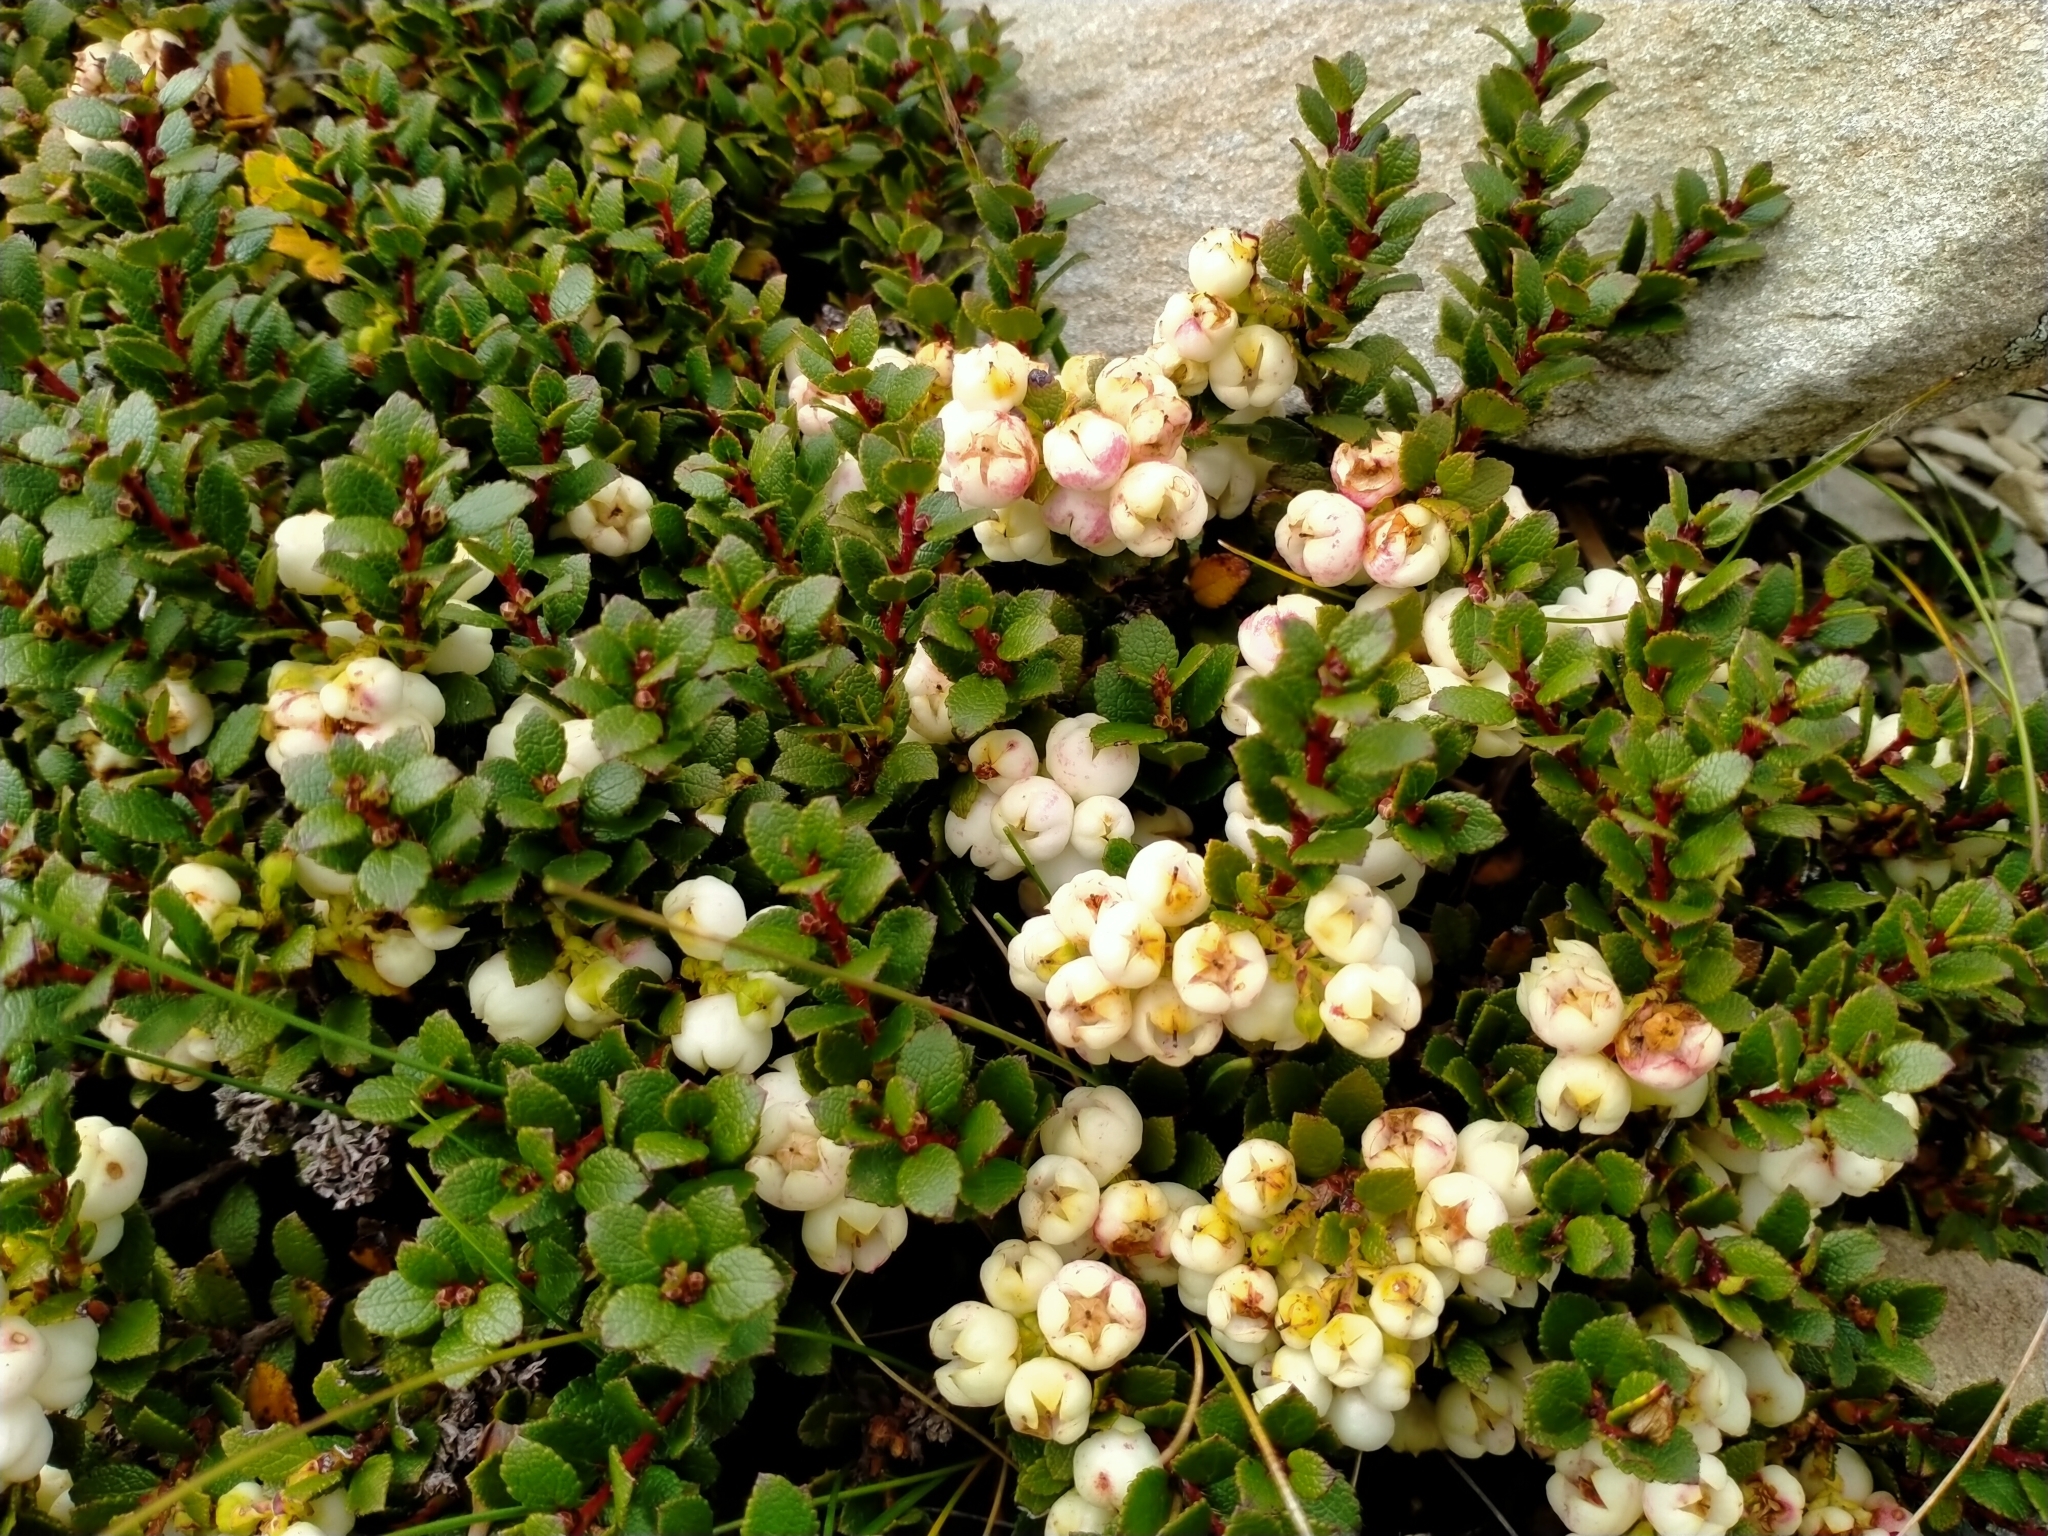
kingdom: Plantae
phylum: Tracheophyta
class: Magnoliopsida
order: Ericales
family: Ericaceae
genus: Gaultheria
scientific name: Gaultheria depressa
